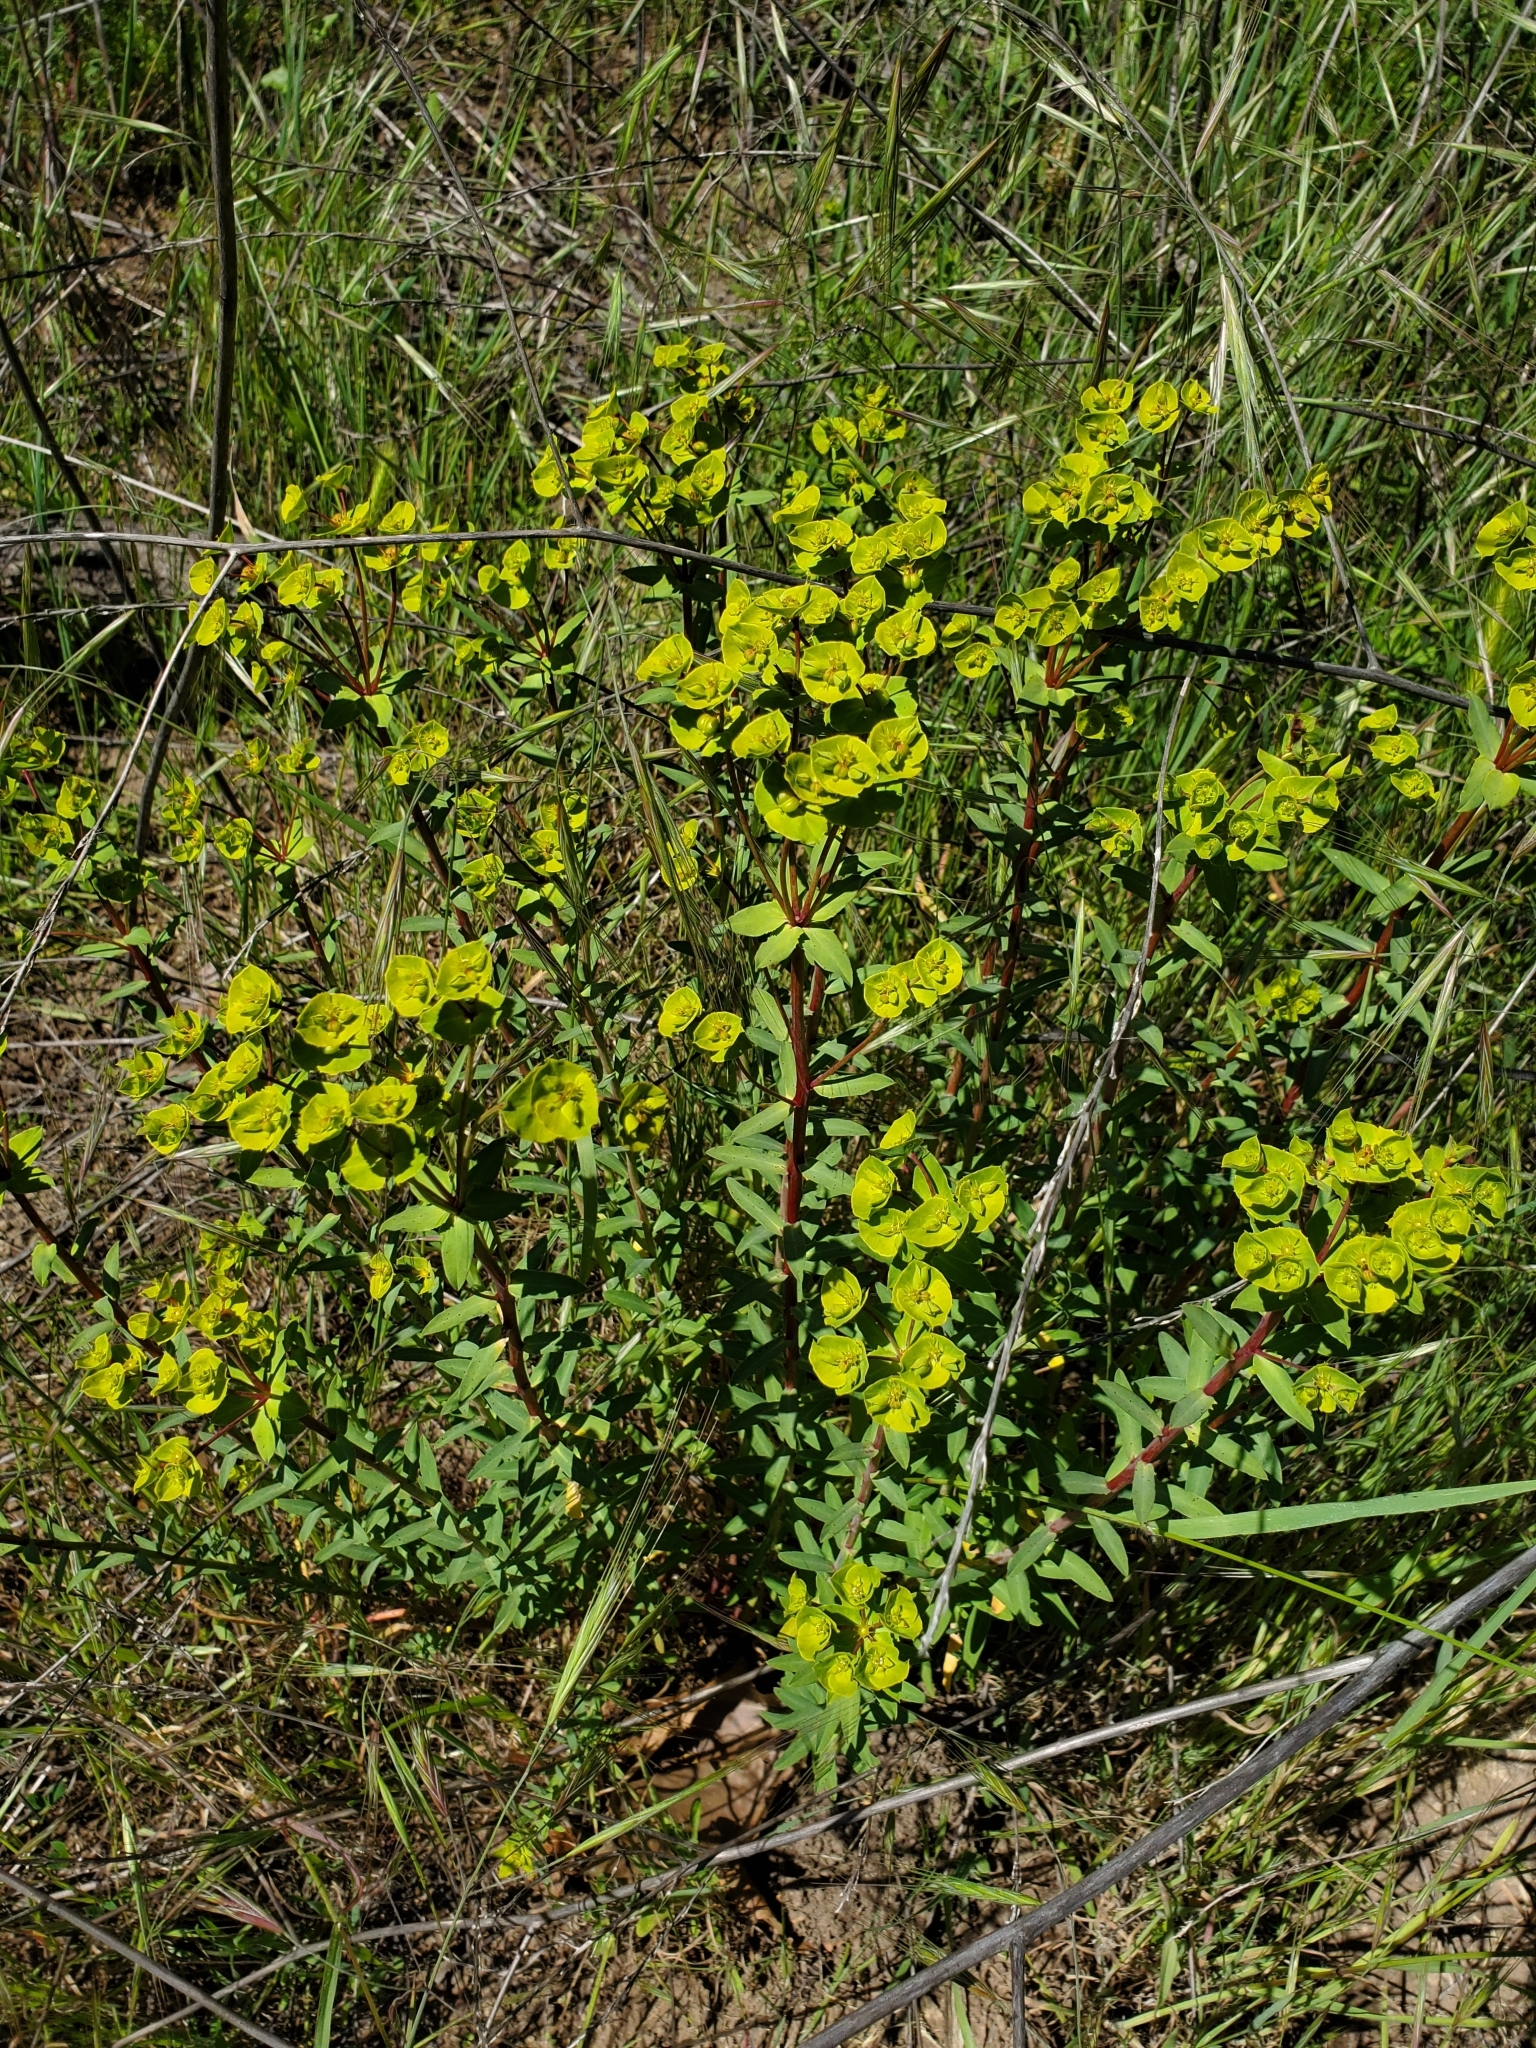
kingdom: Plantae
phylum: Tracheophyta
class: Magnoliopsida
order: Malpighiales
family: Euphorbiaceae
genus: Euphorbia
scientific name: Euphorbia terracina
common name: Geraldton carnation weed
